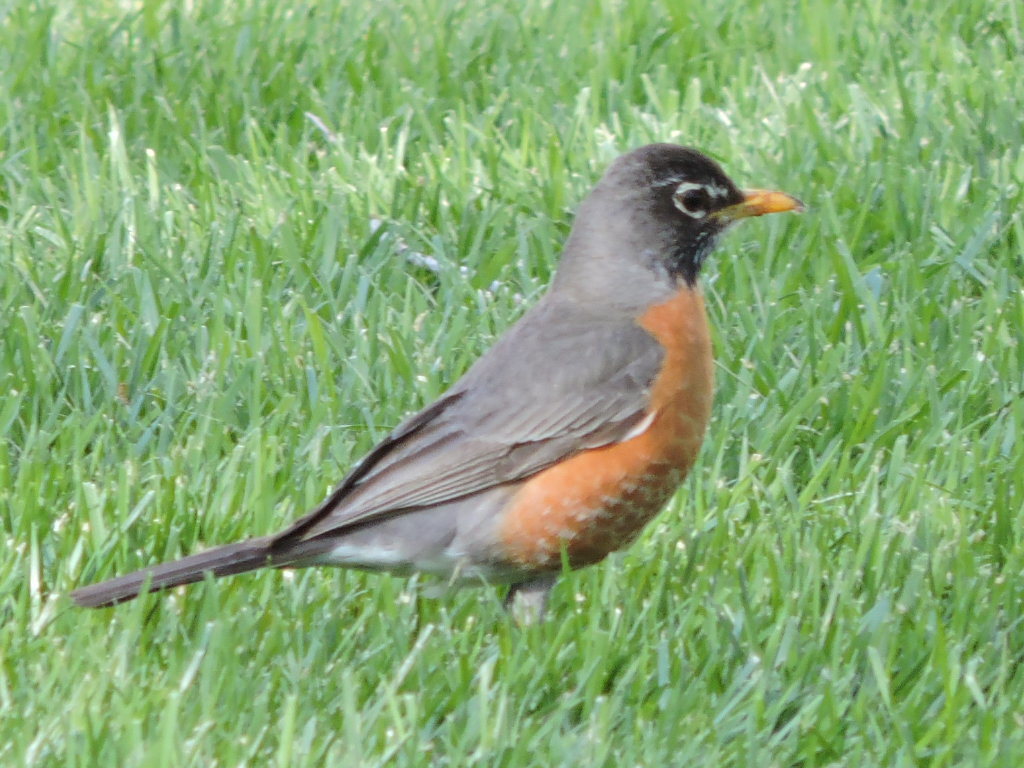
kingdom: Animalia
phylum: Chordata
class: Aves
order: Passeriformes
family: Turdidae
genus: Turdus
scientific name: Turdus migratorius
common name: American robin
